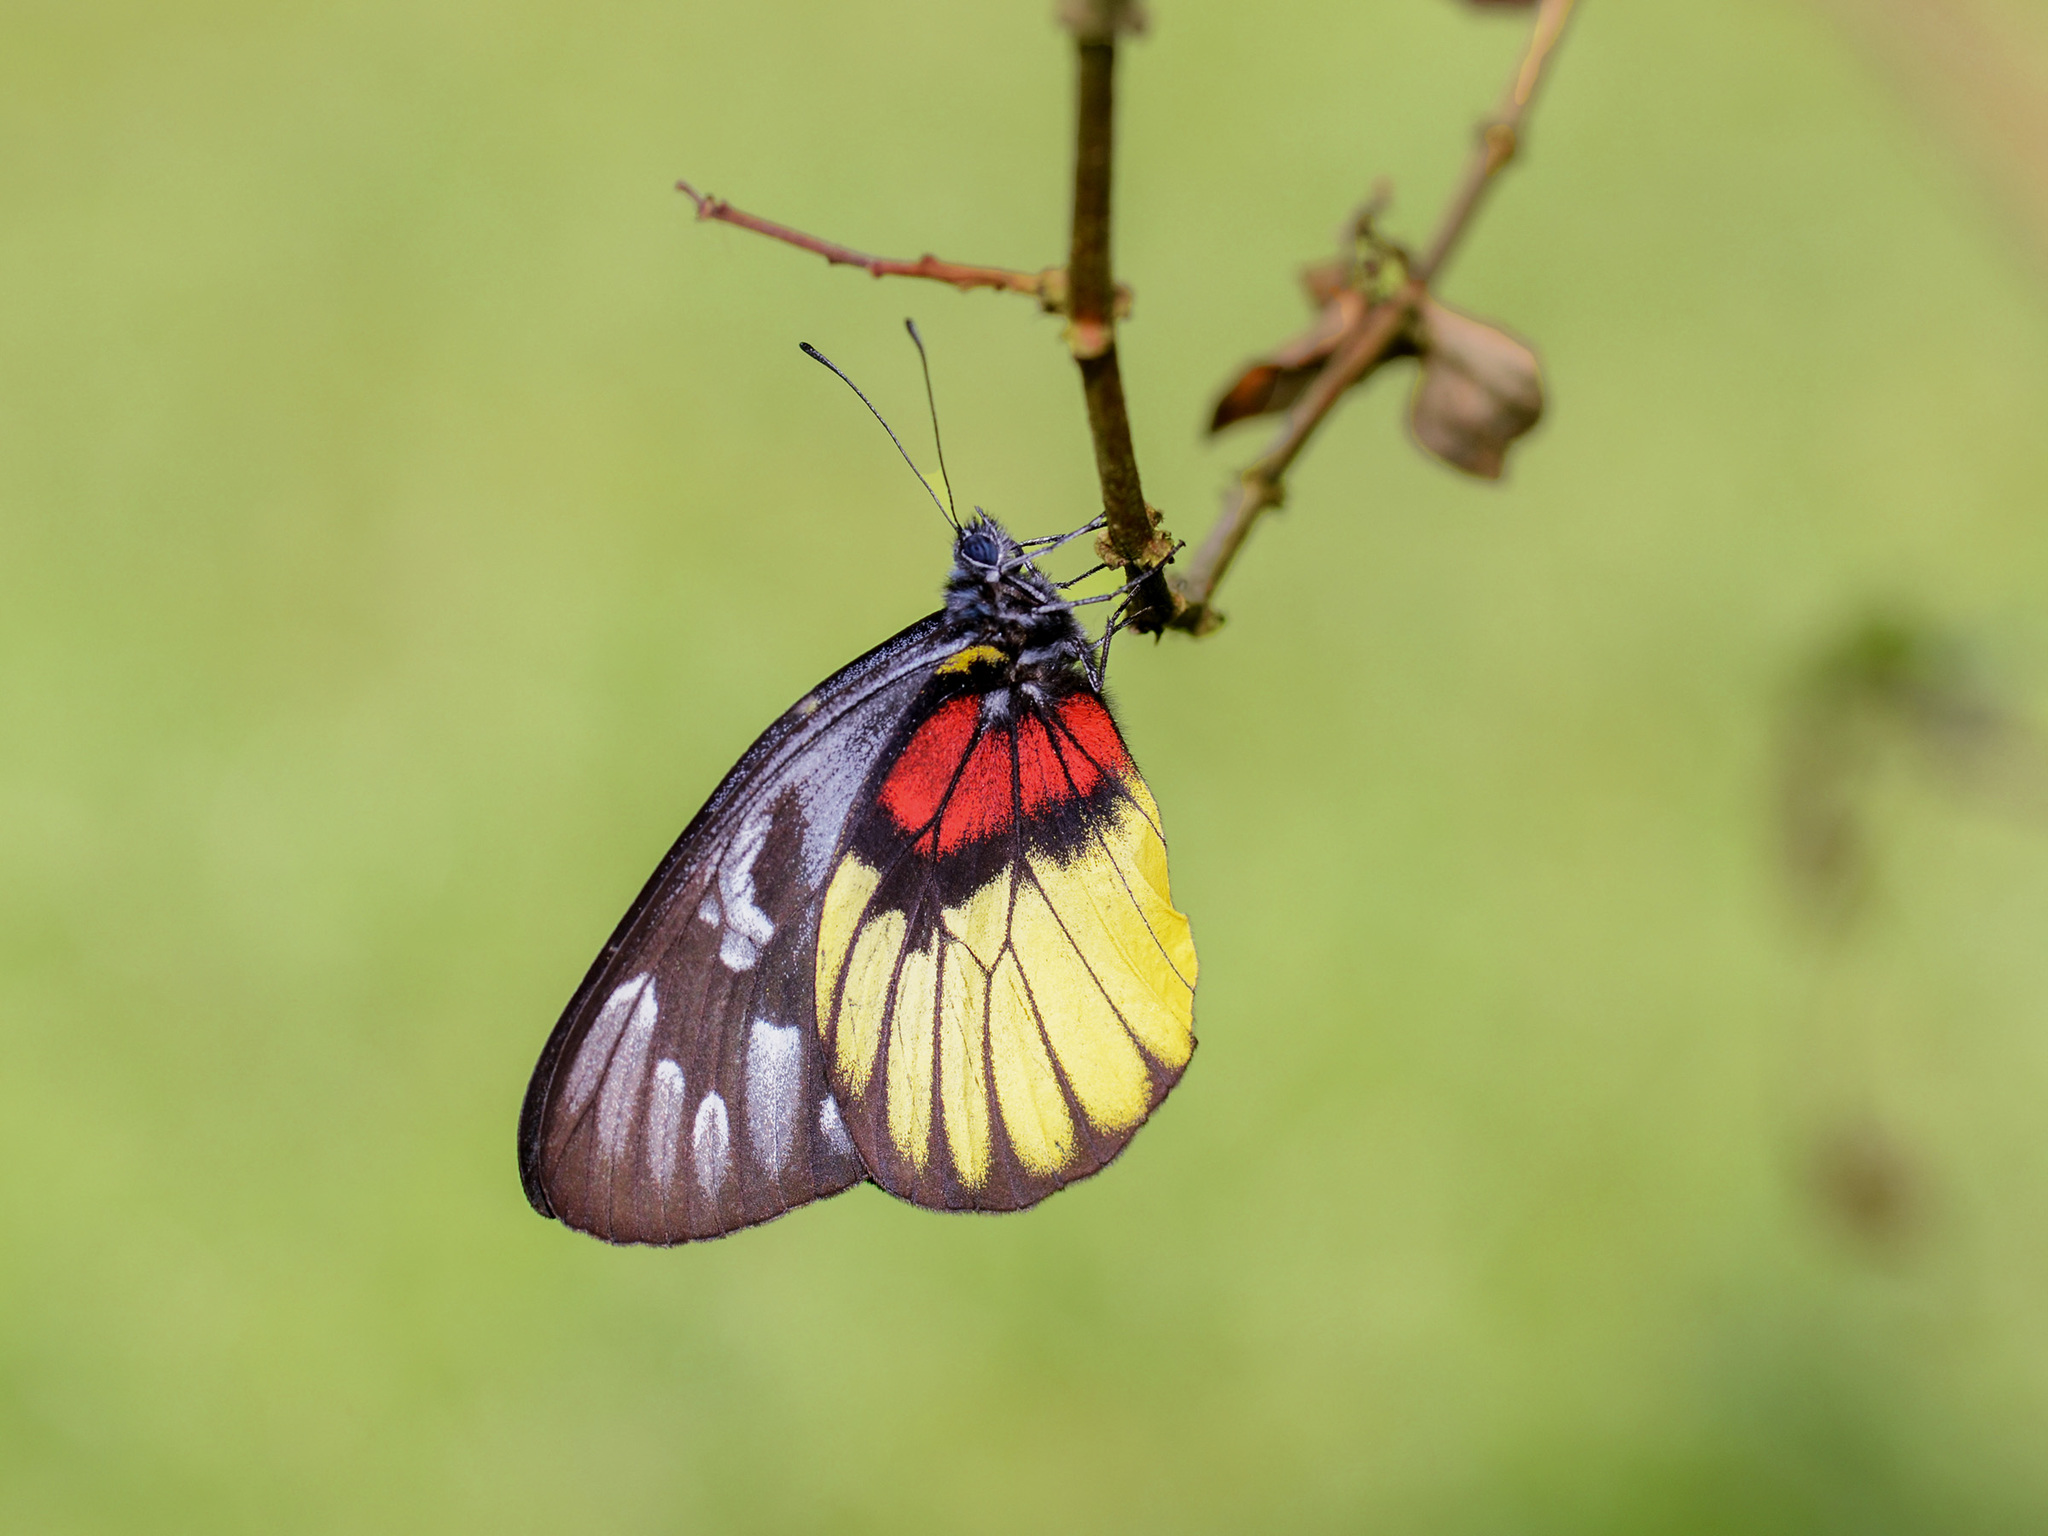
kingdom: Animalia
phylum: Arthropoda
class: Insecta
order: Lepidoptera
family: Pieridae
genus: Delias
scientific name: Delias ninus
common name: Malayan jezebel
